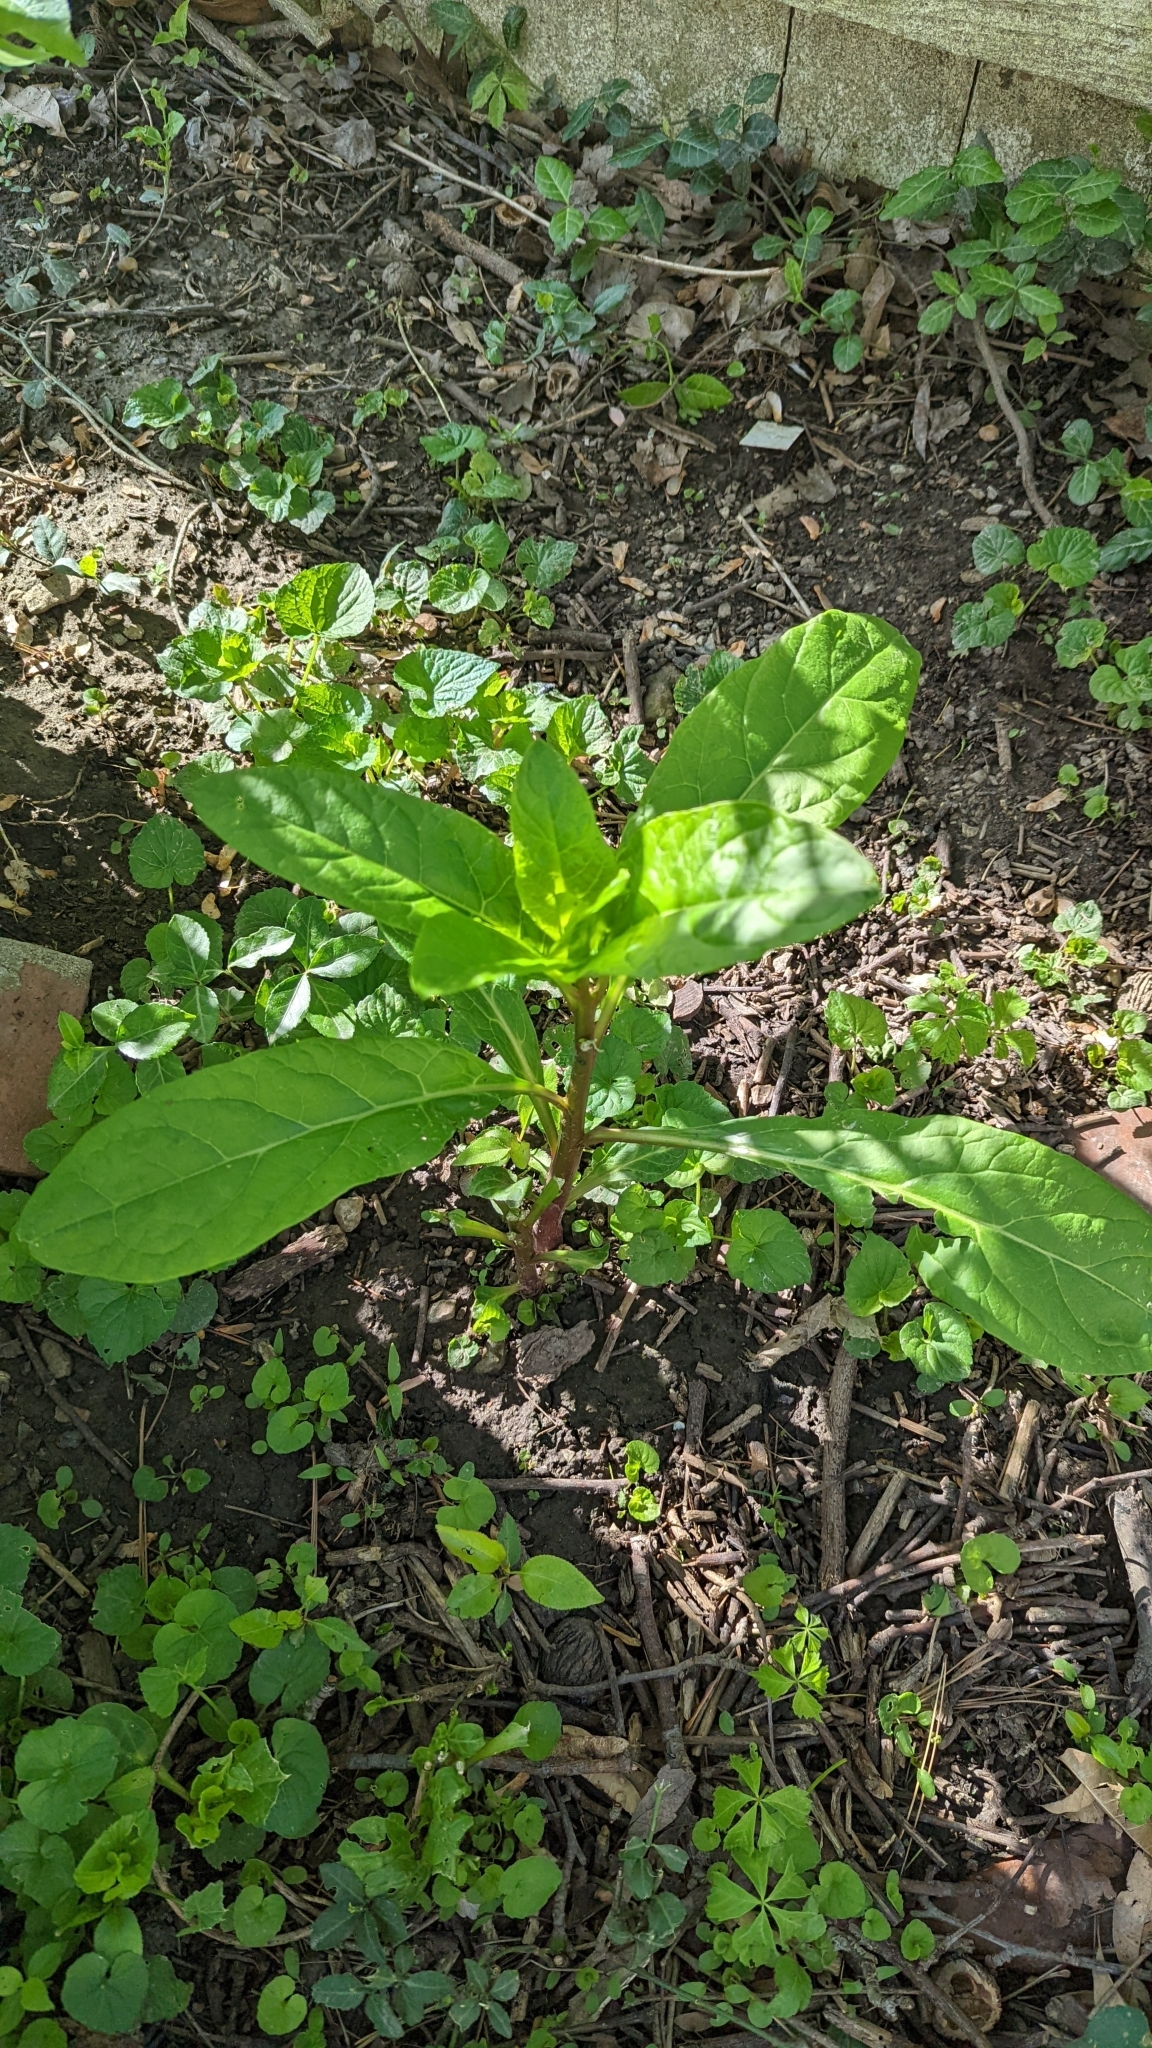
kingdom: Plantae
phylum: Tracheophyta
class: Magnoliopsida
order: Caryophyllales
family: Phytolaccaceae
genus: Phytolacca
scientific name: Phytolacca americana
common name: American pokeweed
